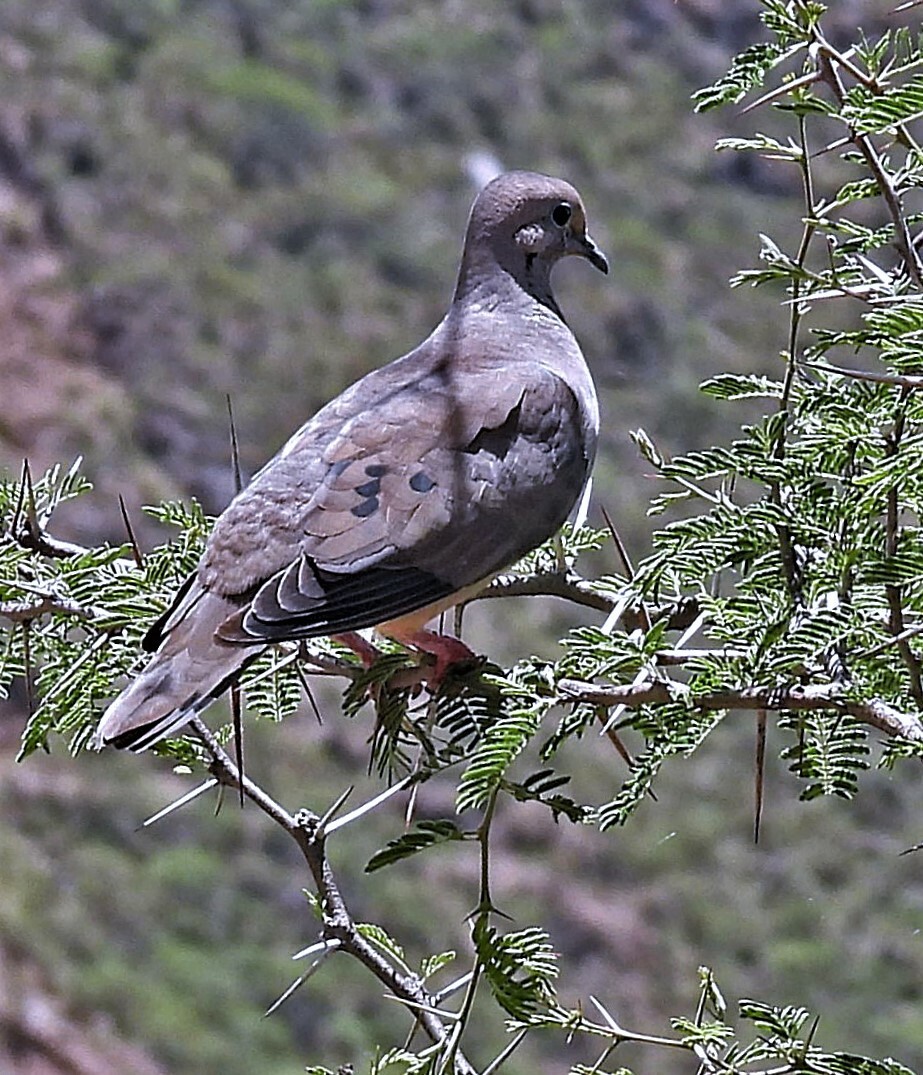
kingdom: Animalia
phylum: Chordata
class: Aves
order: Columbiformes
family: Columbidae
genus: Zenaida
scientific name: Zenaida auriculata
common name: Eared dove
